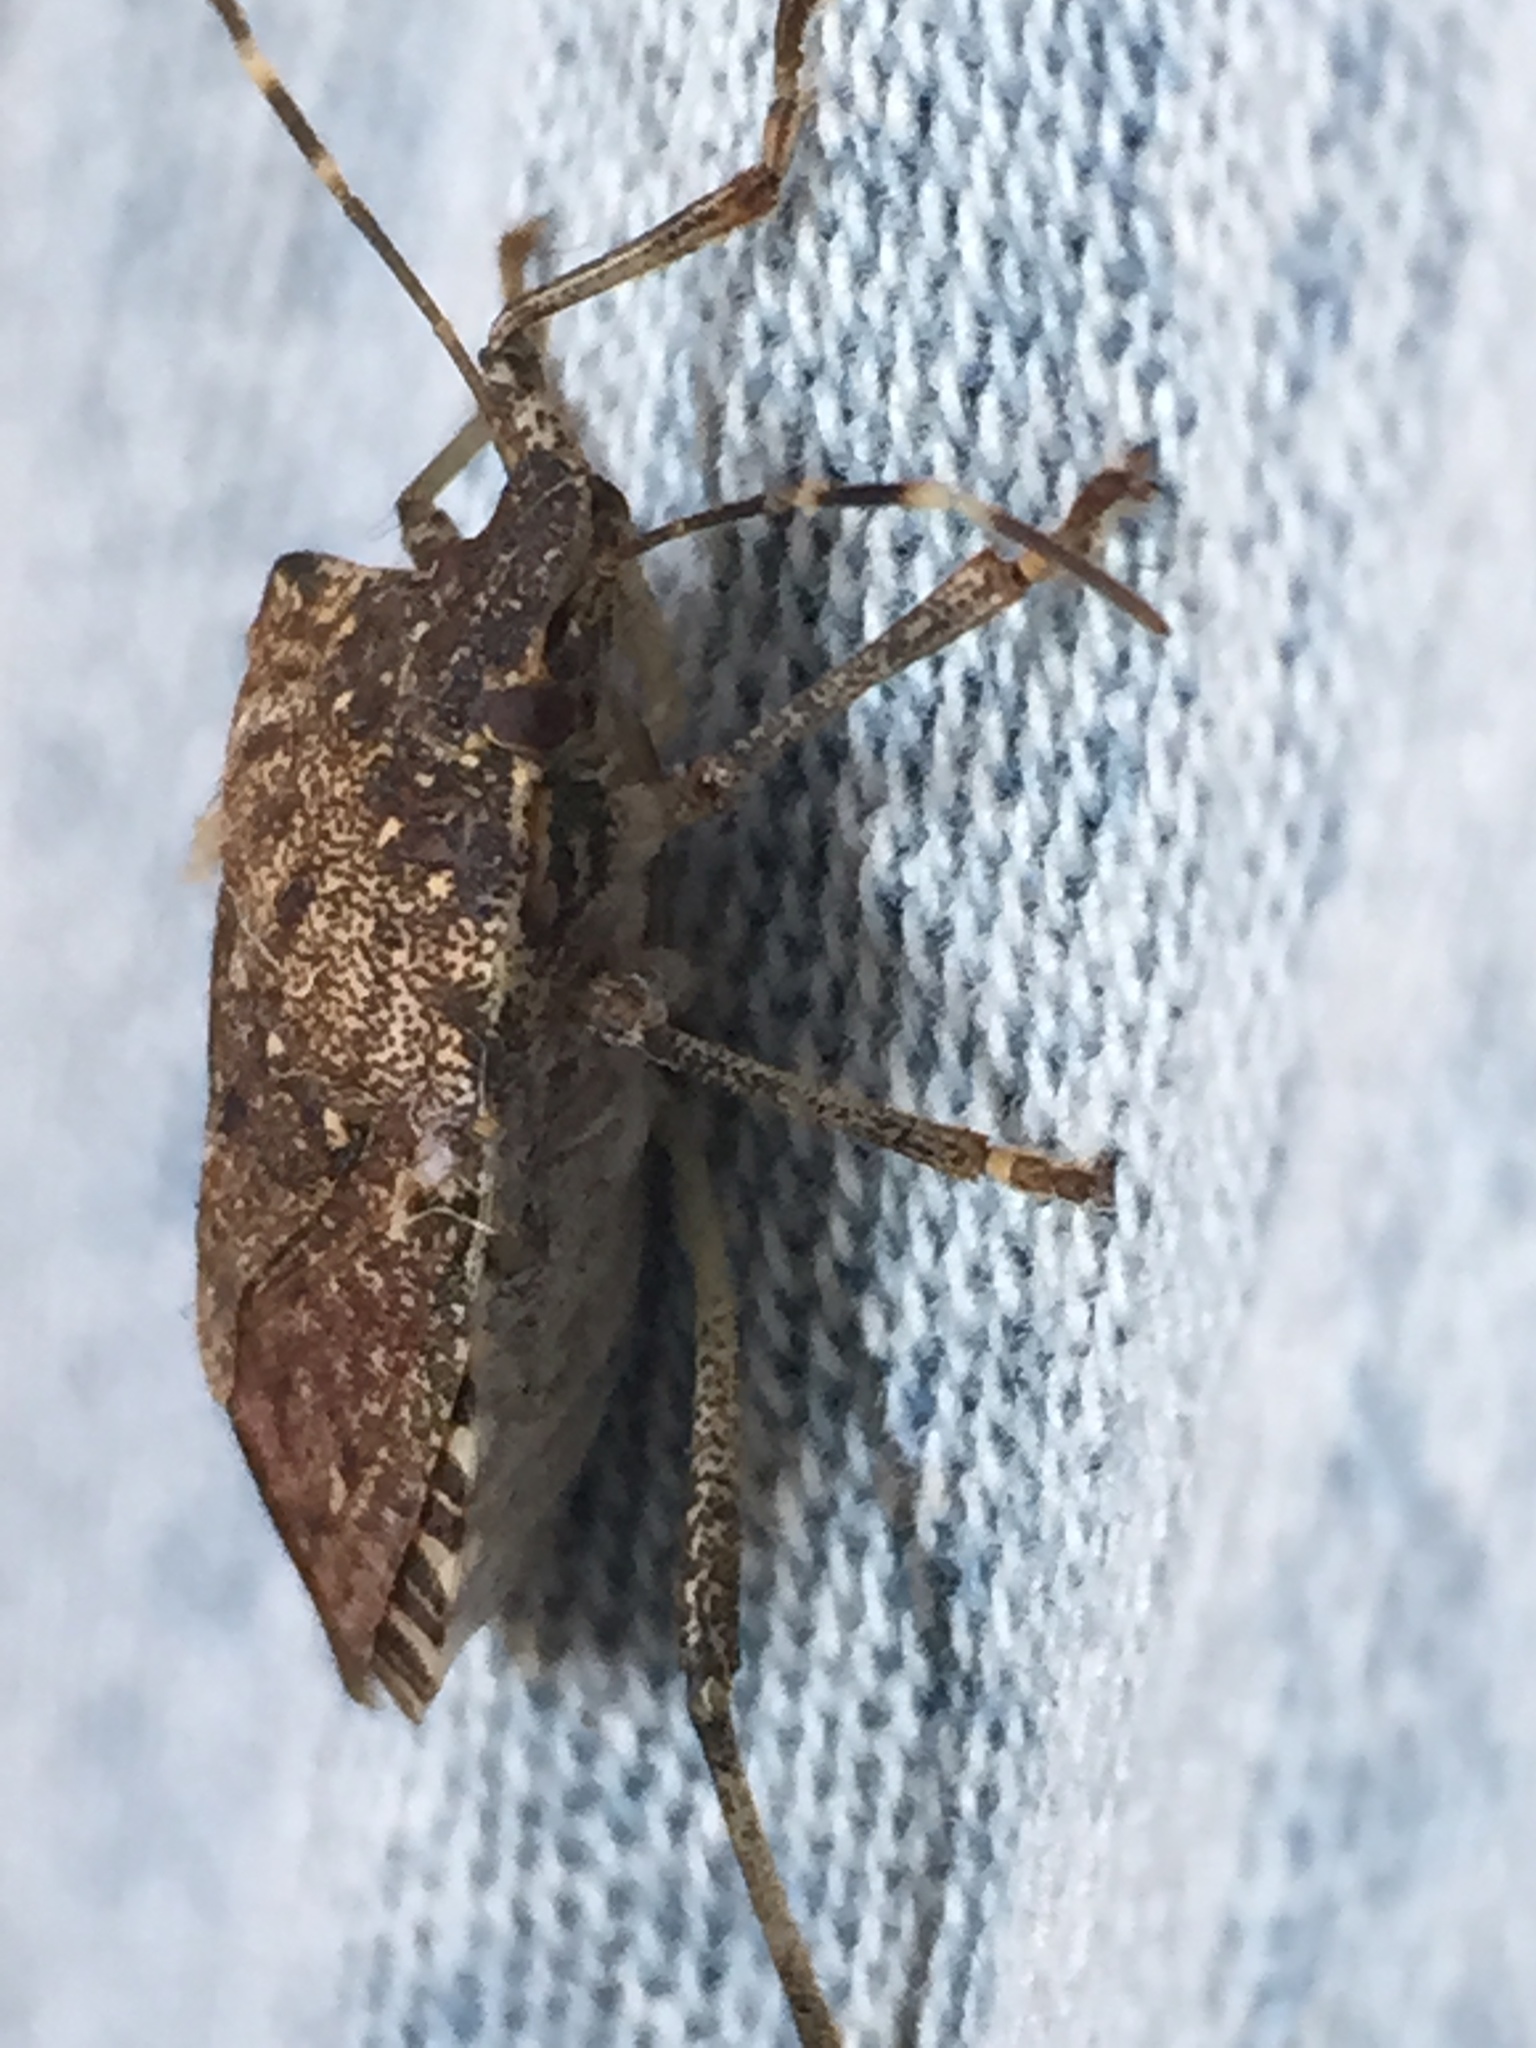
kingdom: Animalia
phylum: Arthropoda
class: Insecta
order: Hemiptera
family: Pentatomidae
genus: Halyomorpha
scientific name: Halyomorpha halys
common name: Brown marmorated stink bug
